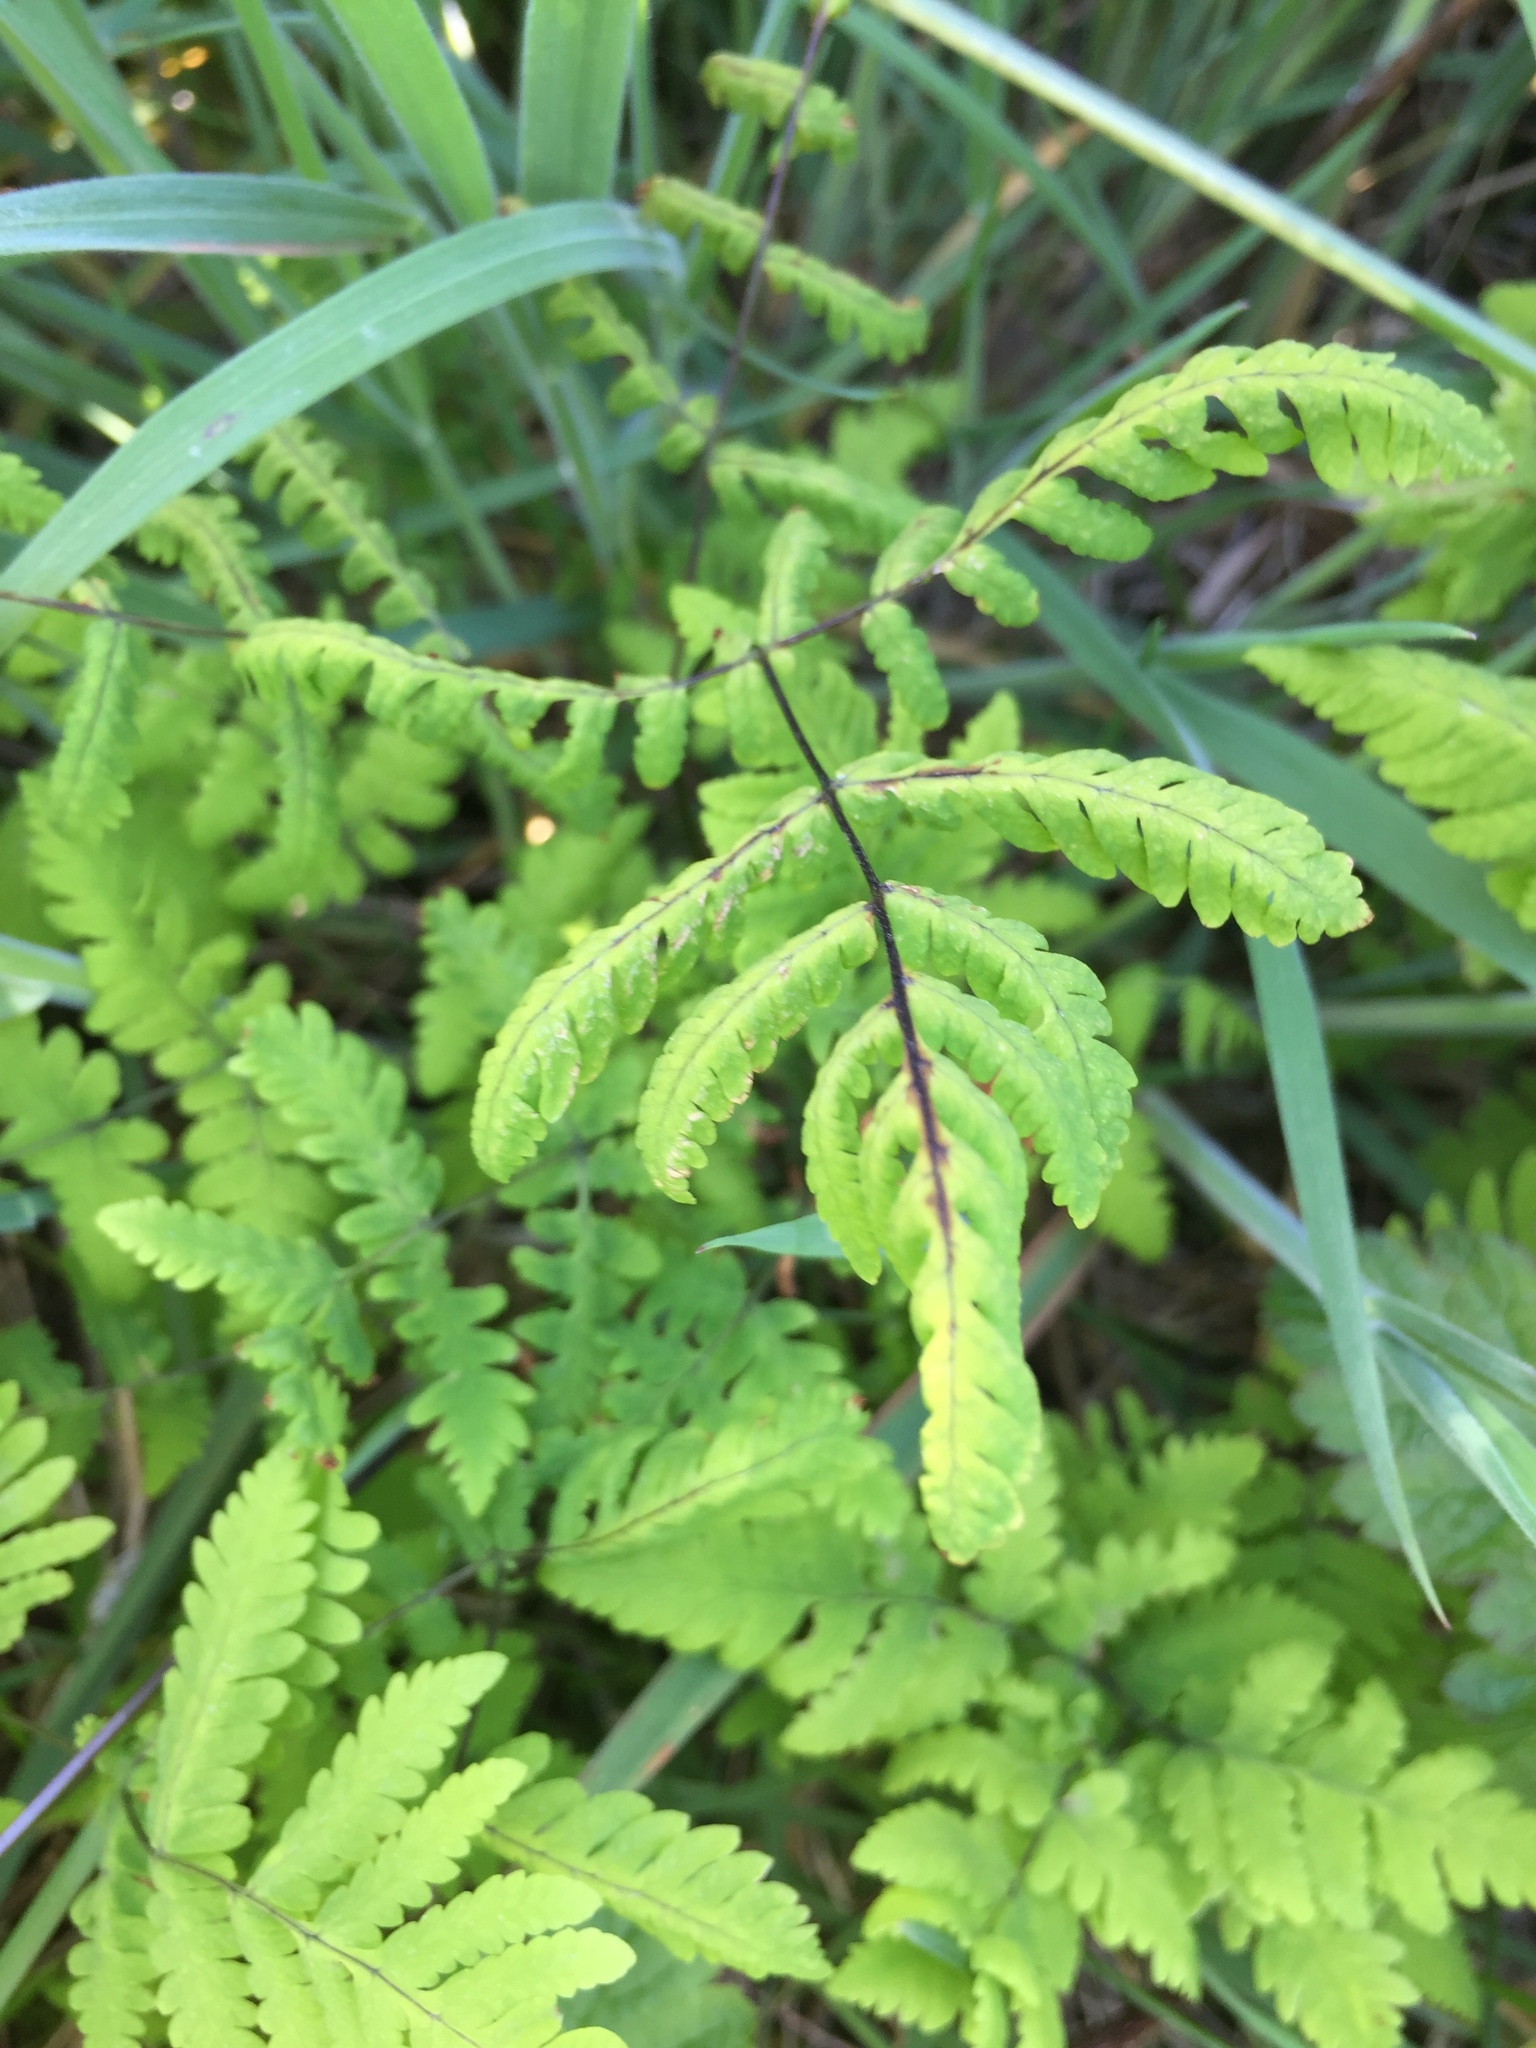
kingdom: Plantae
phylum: Tracheophyta
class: Polypodiopsida
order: Polypodiales
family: Cystopteridaceae
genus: Gymnocarpium
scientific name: Gymnocarpium dryopteris
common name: Oak fern
